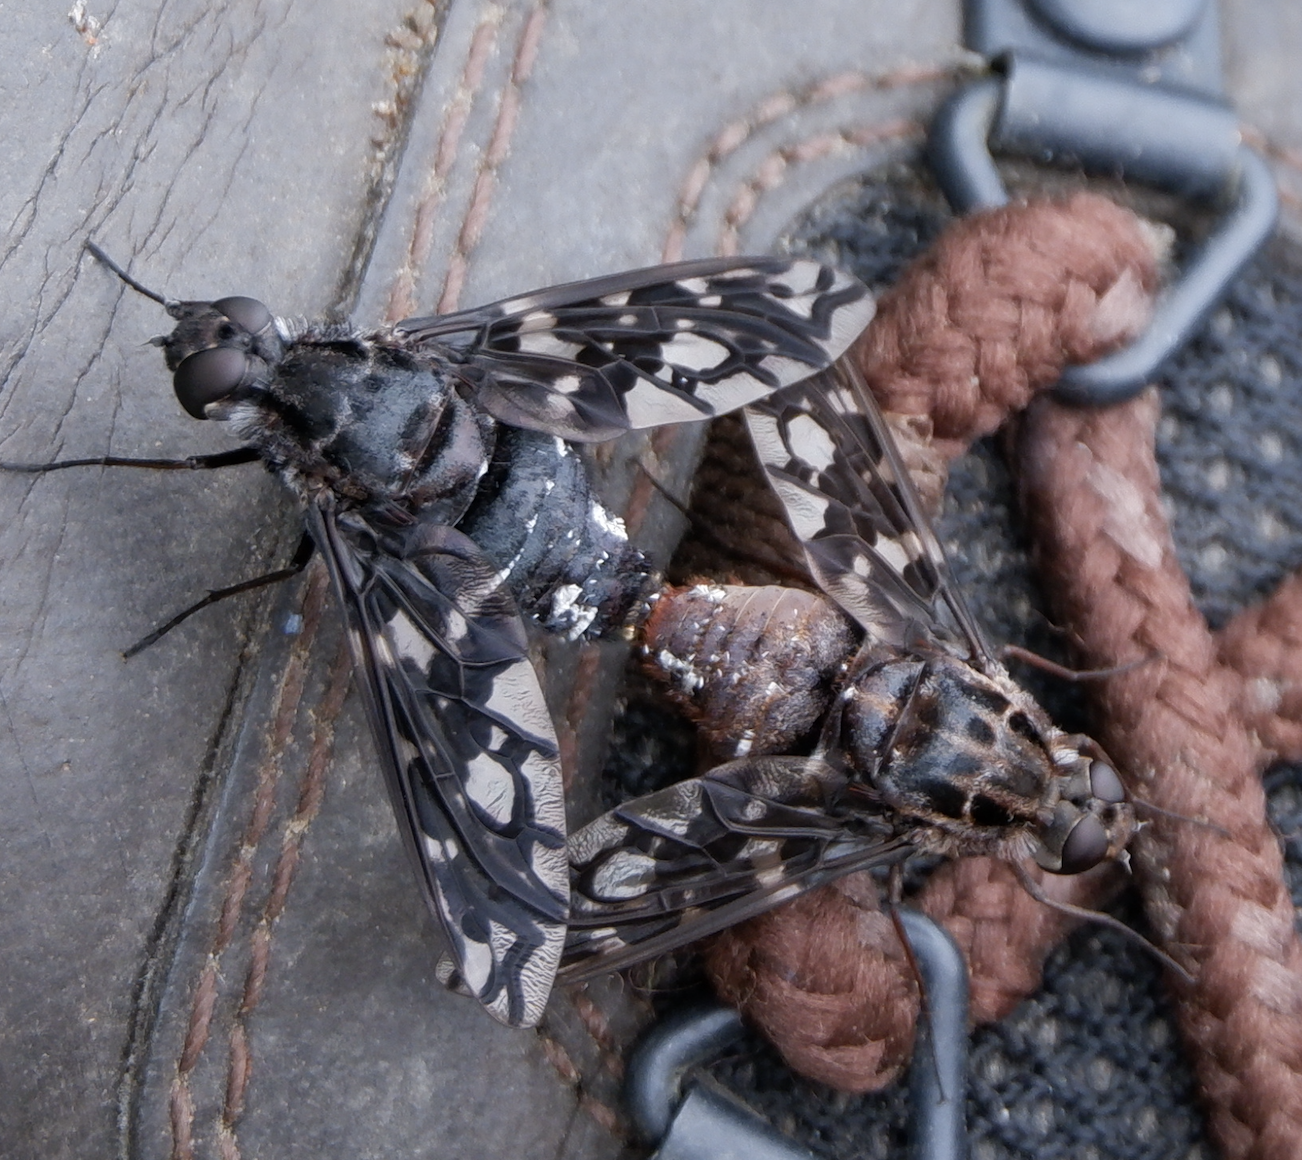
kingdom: Animalia
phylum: Arthropoda
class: Insecta
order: Diptera
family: Bombyliidae
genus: Xenox
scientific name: Xenox tigrinus
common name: Tiger bee fly
